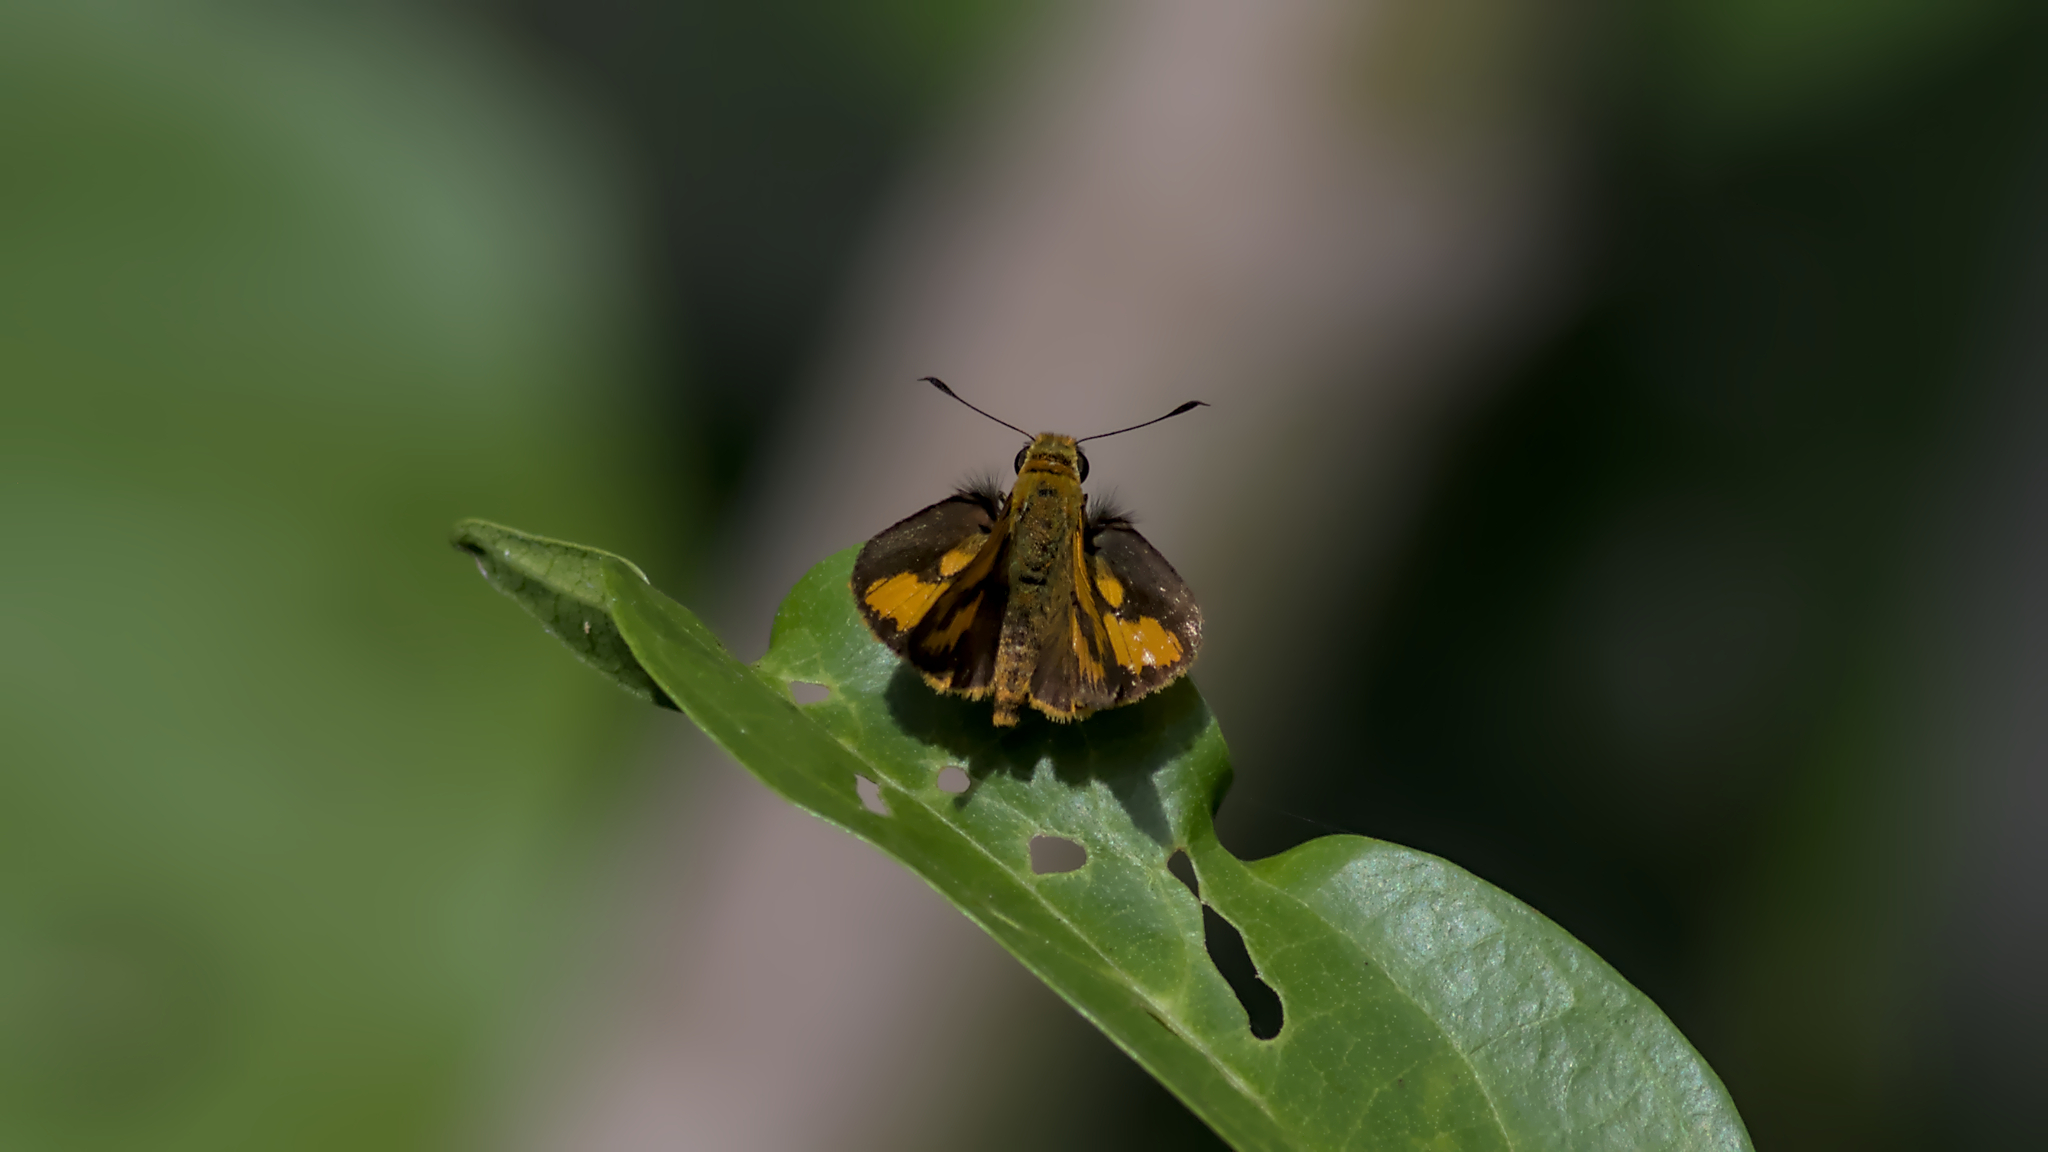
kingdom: Animalia
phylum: Arthropoda
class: Insecta
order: Lepidoptera
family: Hesperiidae
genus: Telicota
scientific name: Telicota augias
